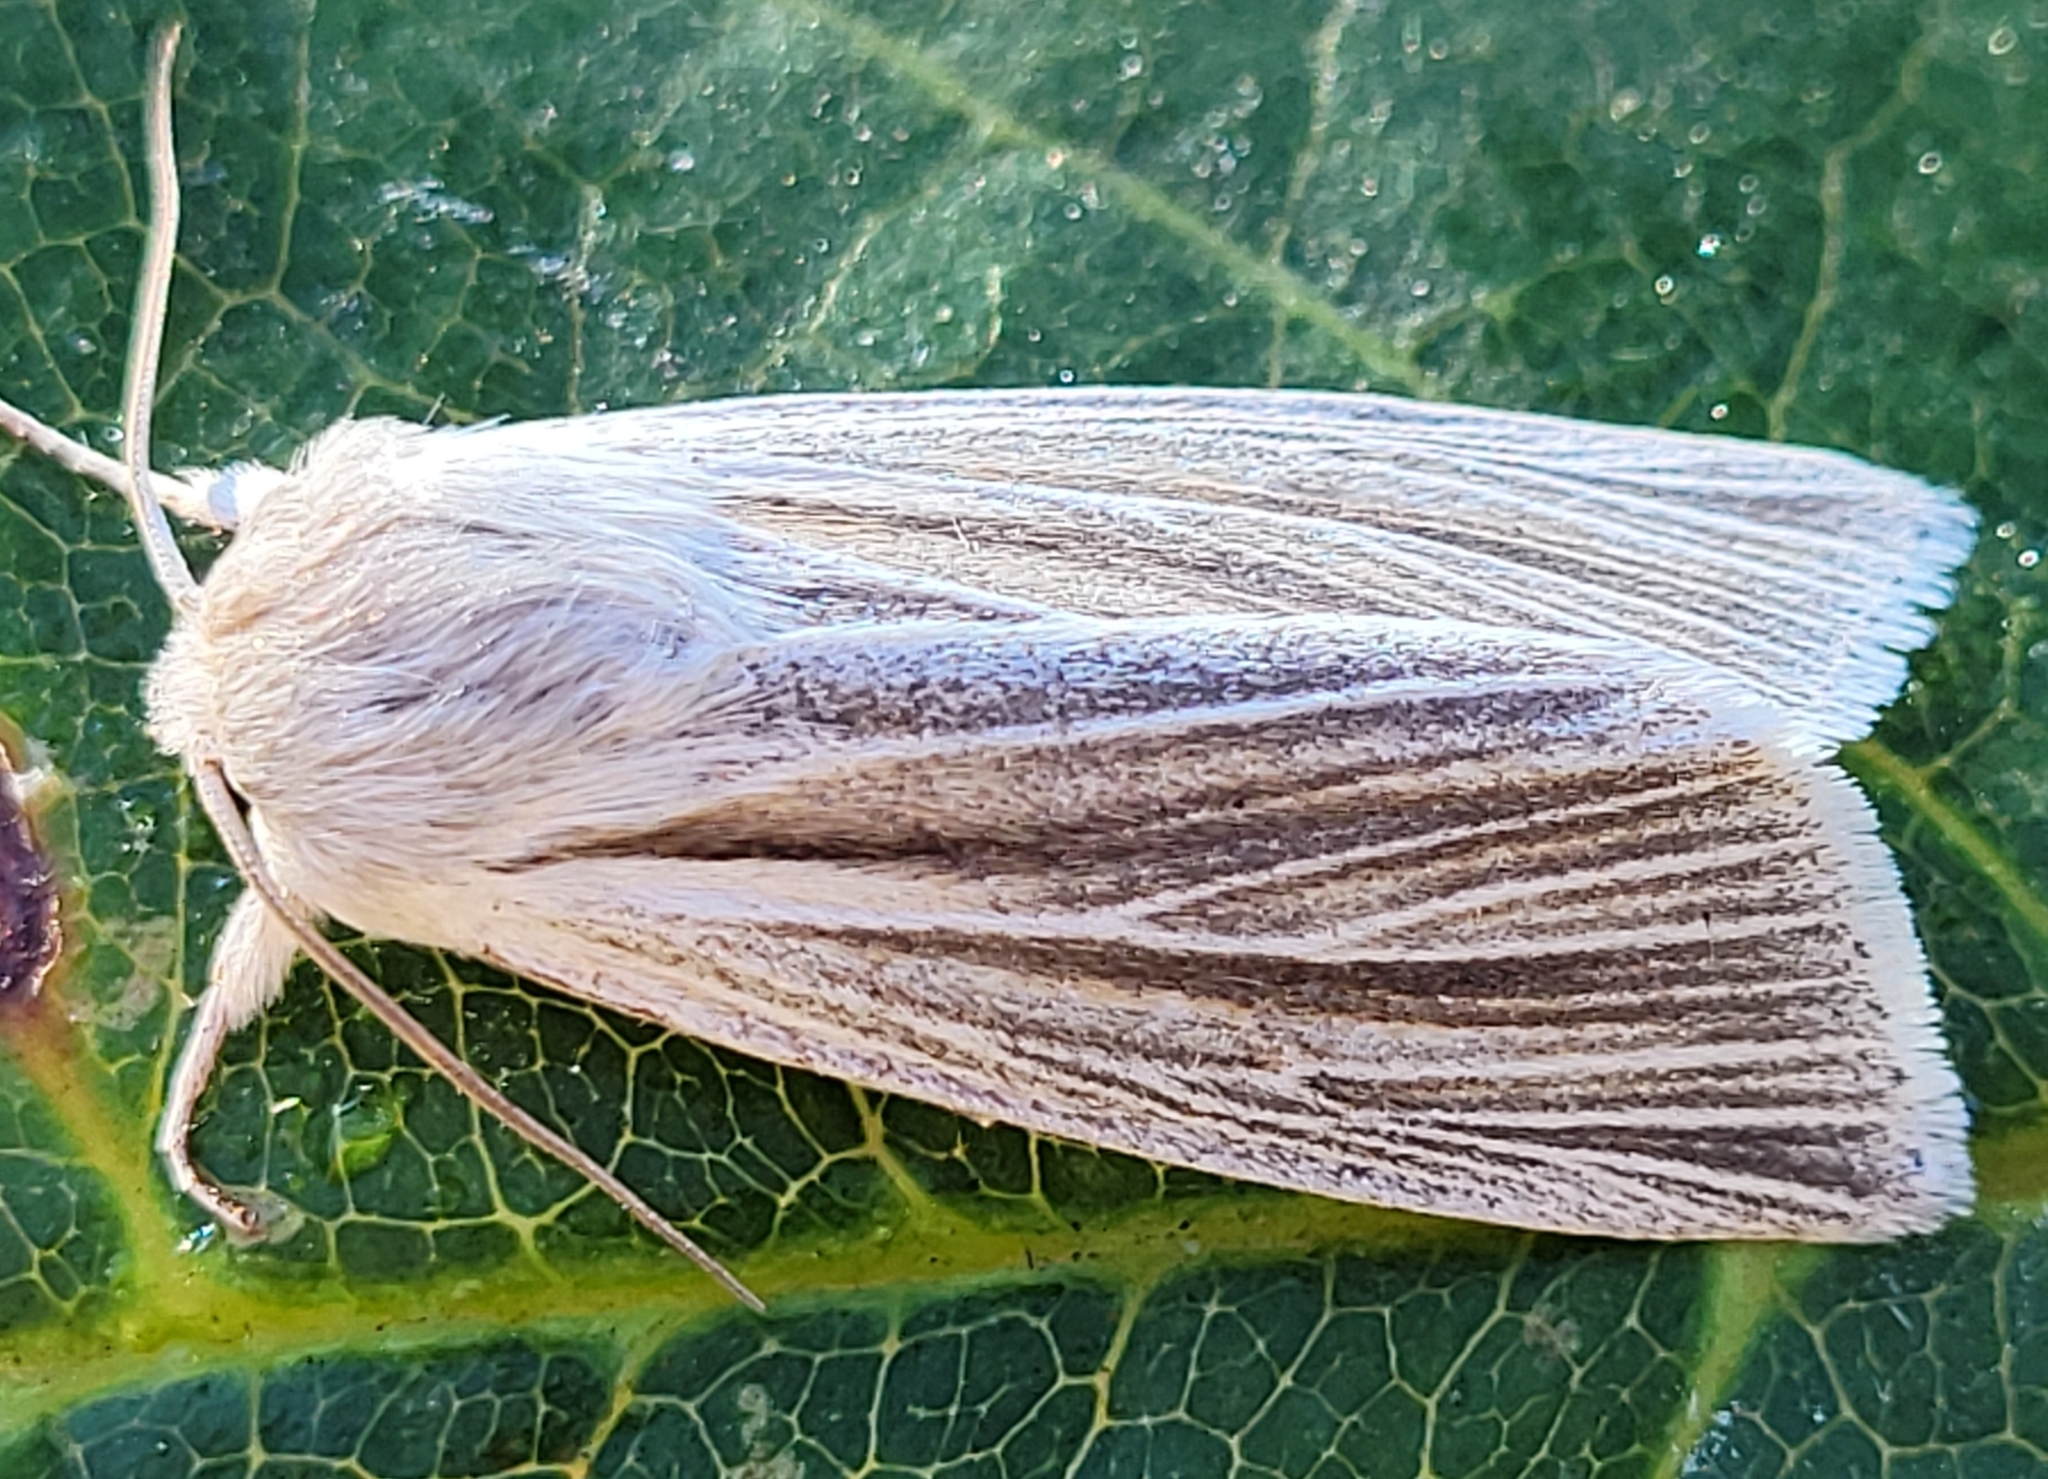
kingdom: Animalia
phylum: Arthropoda
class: Insecta
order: Lepidoptera
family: Noctuidae
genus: Acronicta
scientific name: Acronicta insularis
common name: Henry's marsh moth
